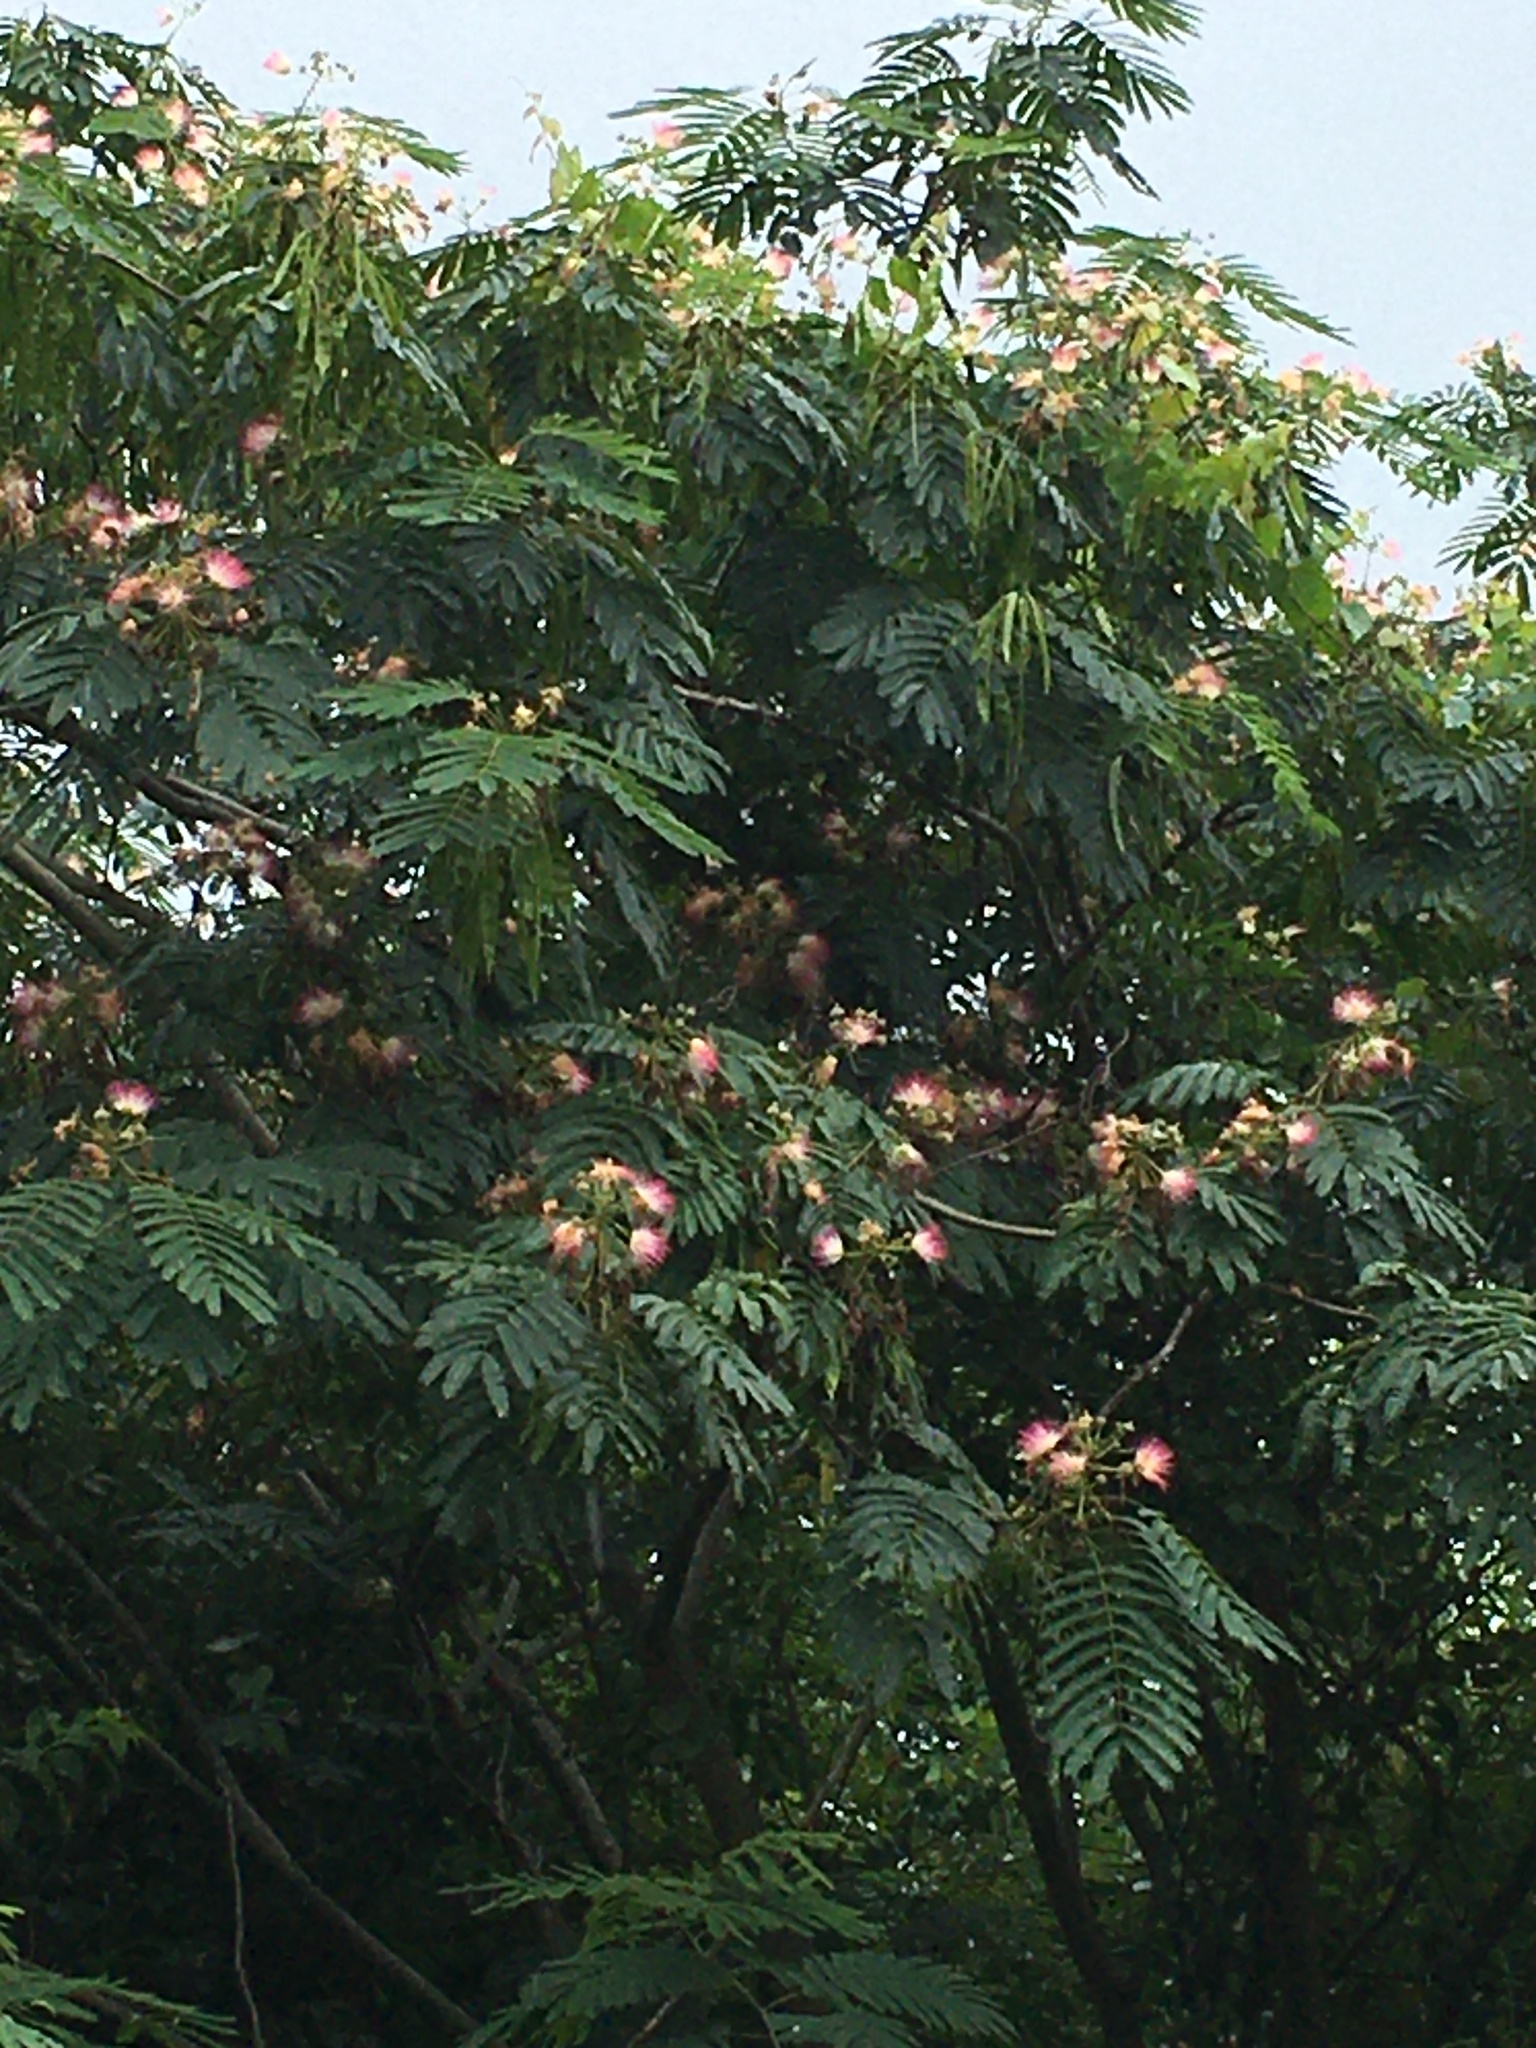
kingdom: Plantae
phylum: Tracheophyta
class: Magnoliopsida
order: Fabales
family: Fabaceae
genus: Albizia
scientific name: Albizia julibrissin
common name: Silktree
